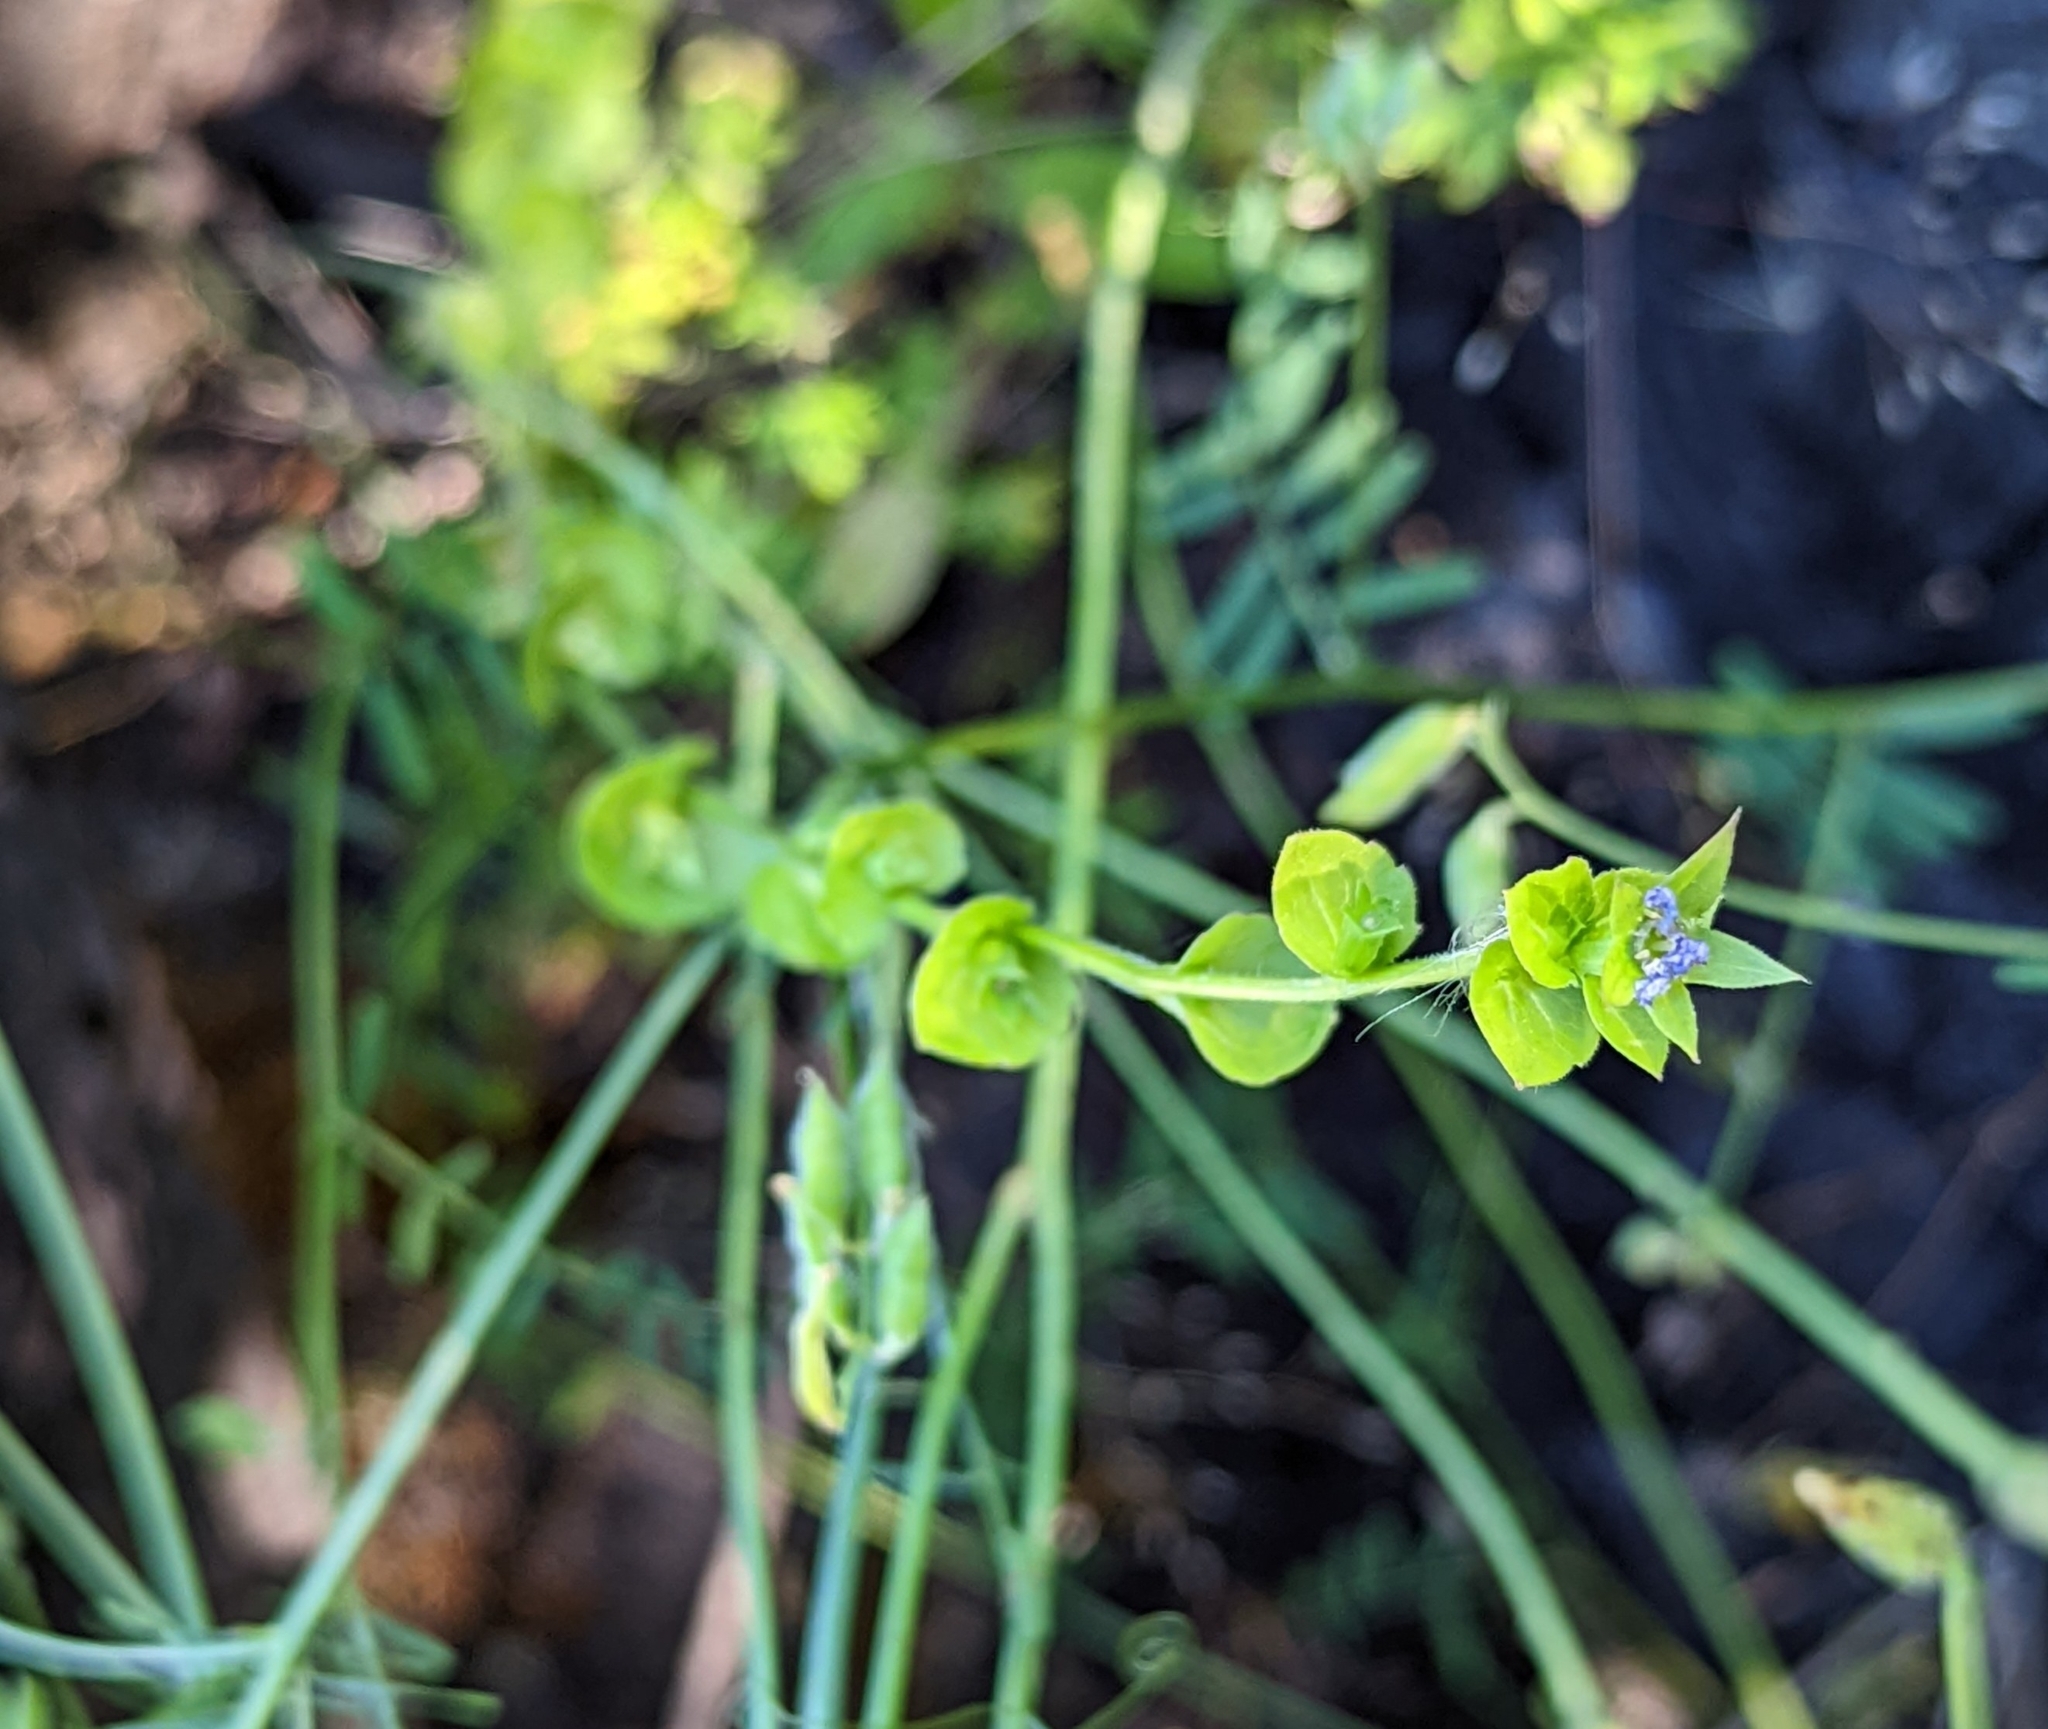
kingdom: Plantae
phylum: Tracheophyta
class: Magnoliopsida
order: Asterales
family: Campanulaceae
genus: Triodanis
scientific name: Triodanis perfoliata
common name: Clasping venus' looking-glass
